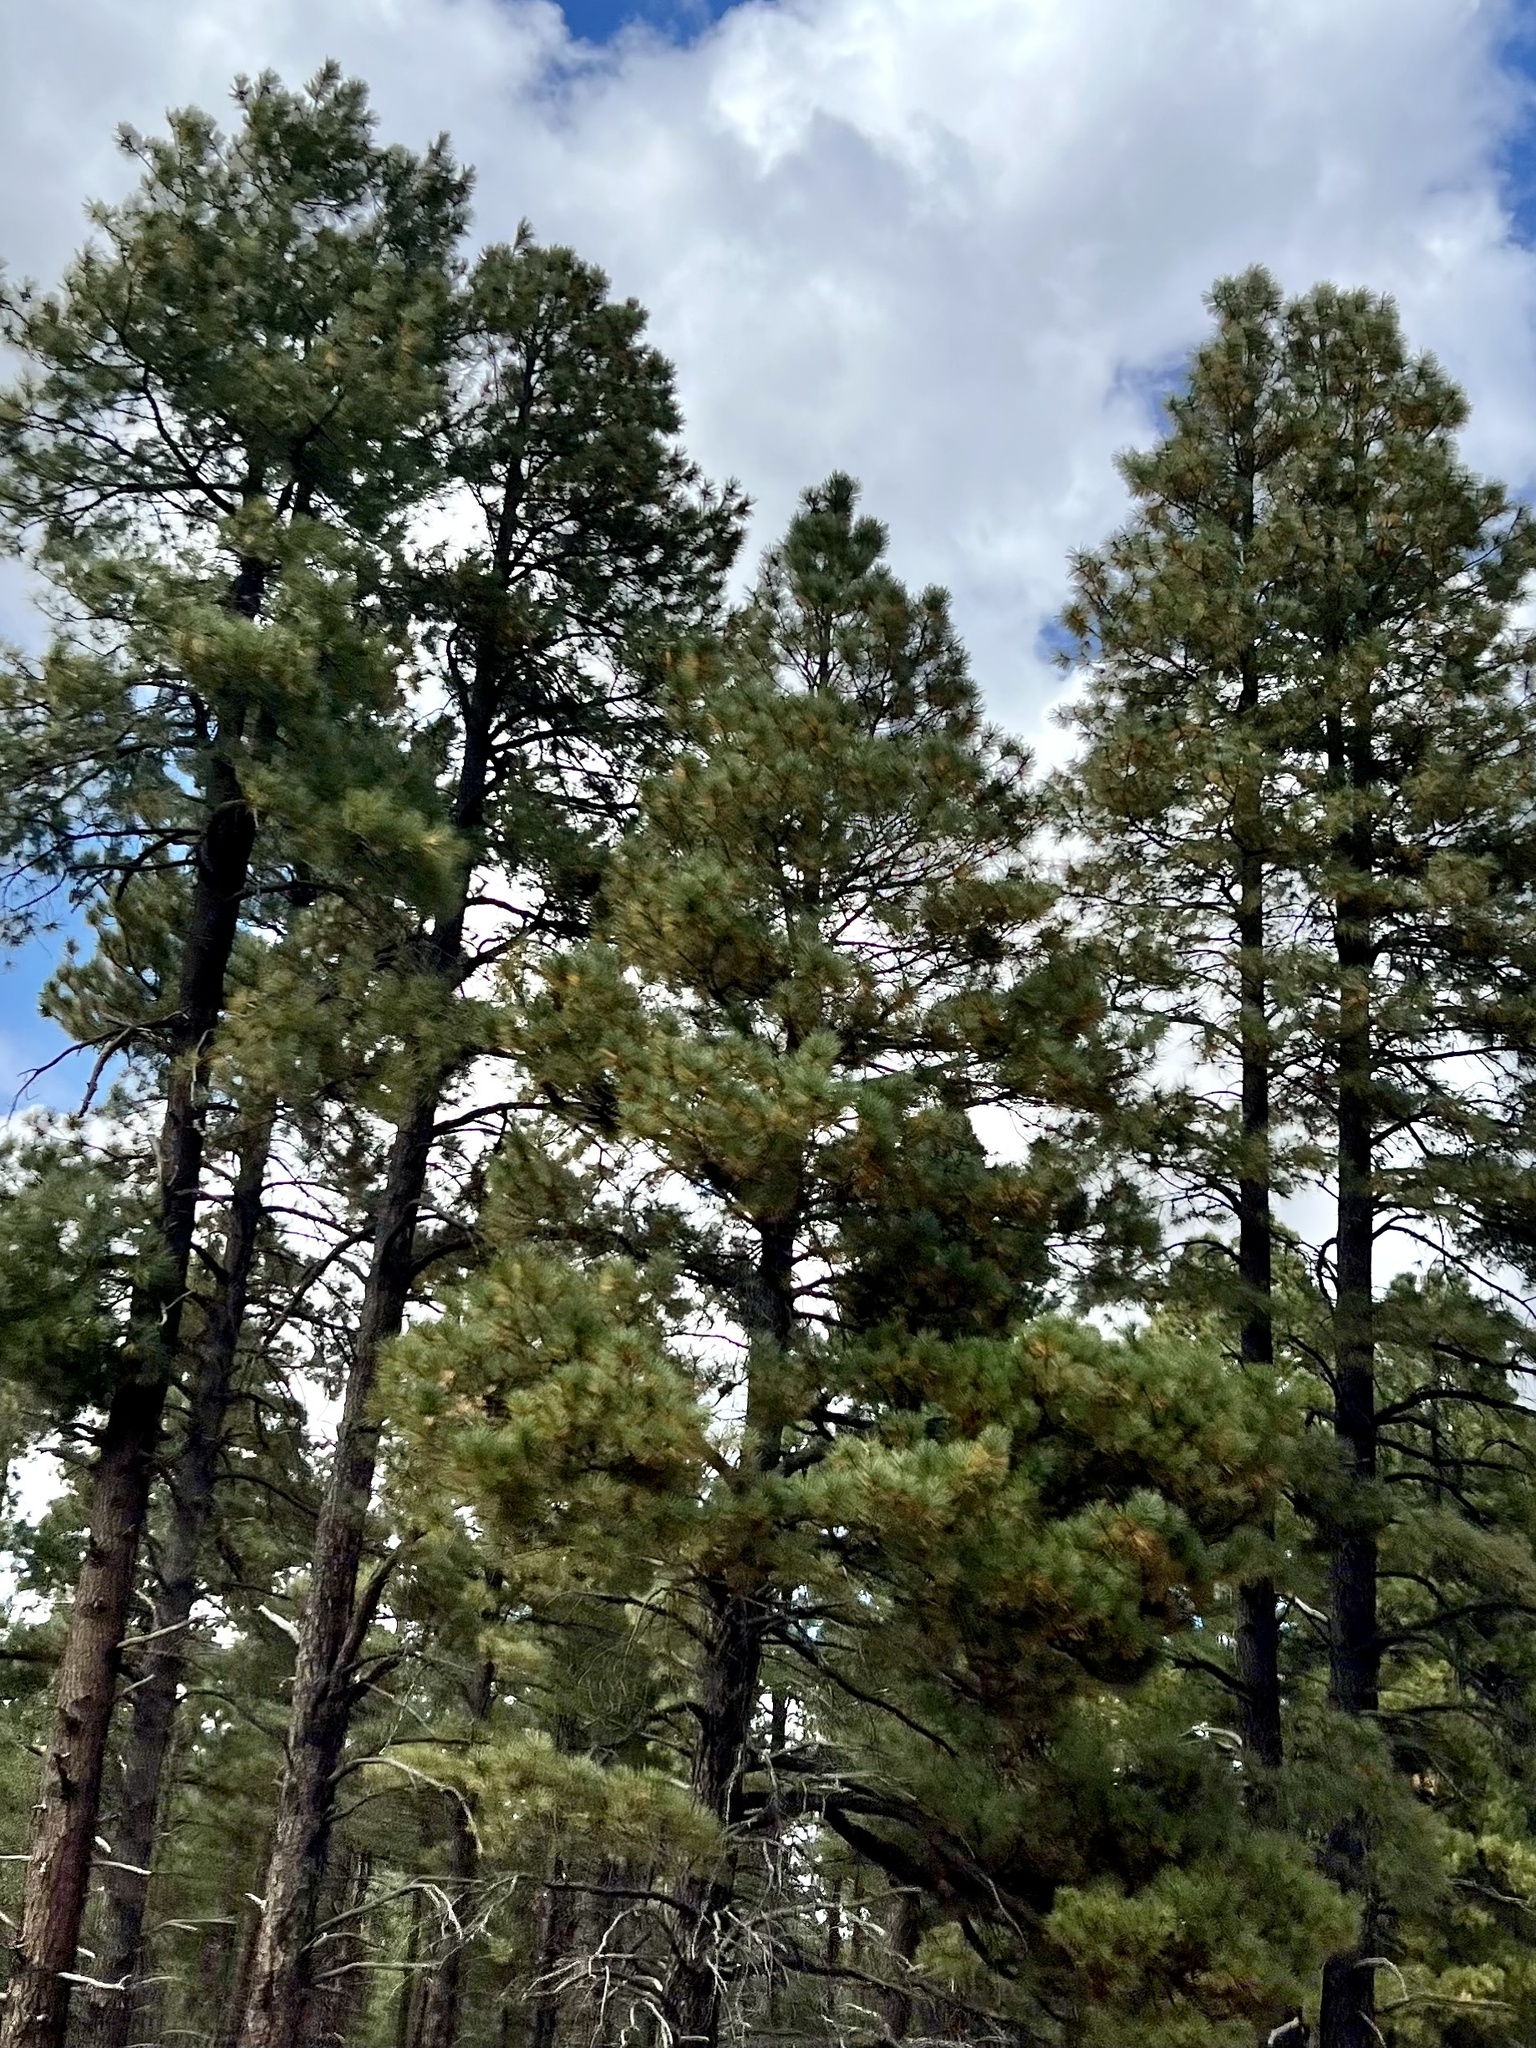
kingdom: Plantae
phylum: Tracheophyta
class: Pinopsida
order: Pinales
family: Pinaceae
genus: Pinus
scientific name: Pinus ponderosa
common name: Western yellow-pine
